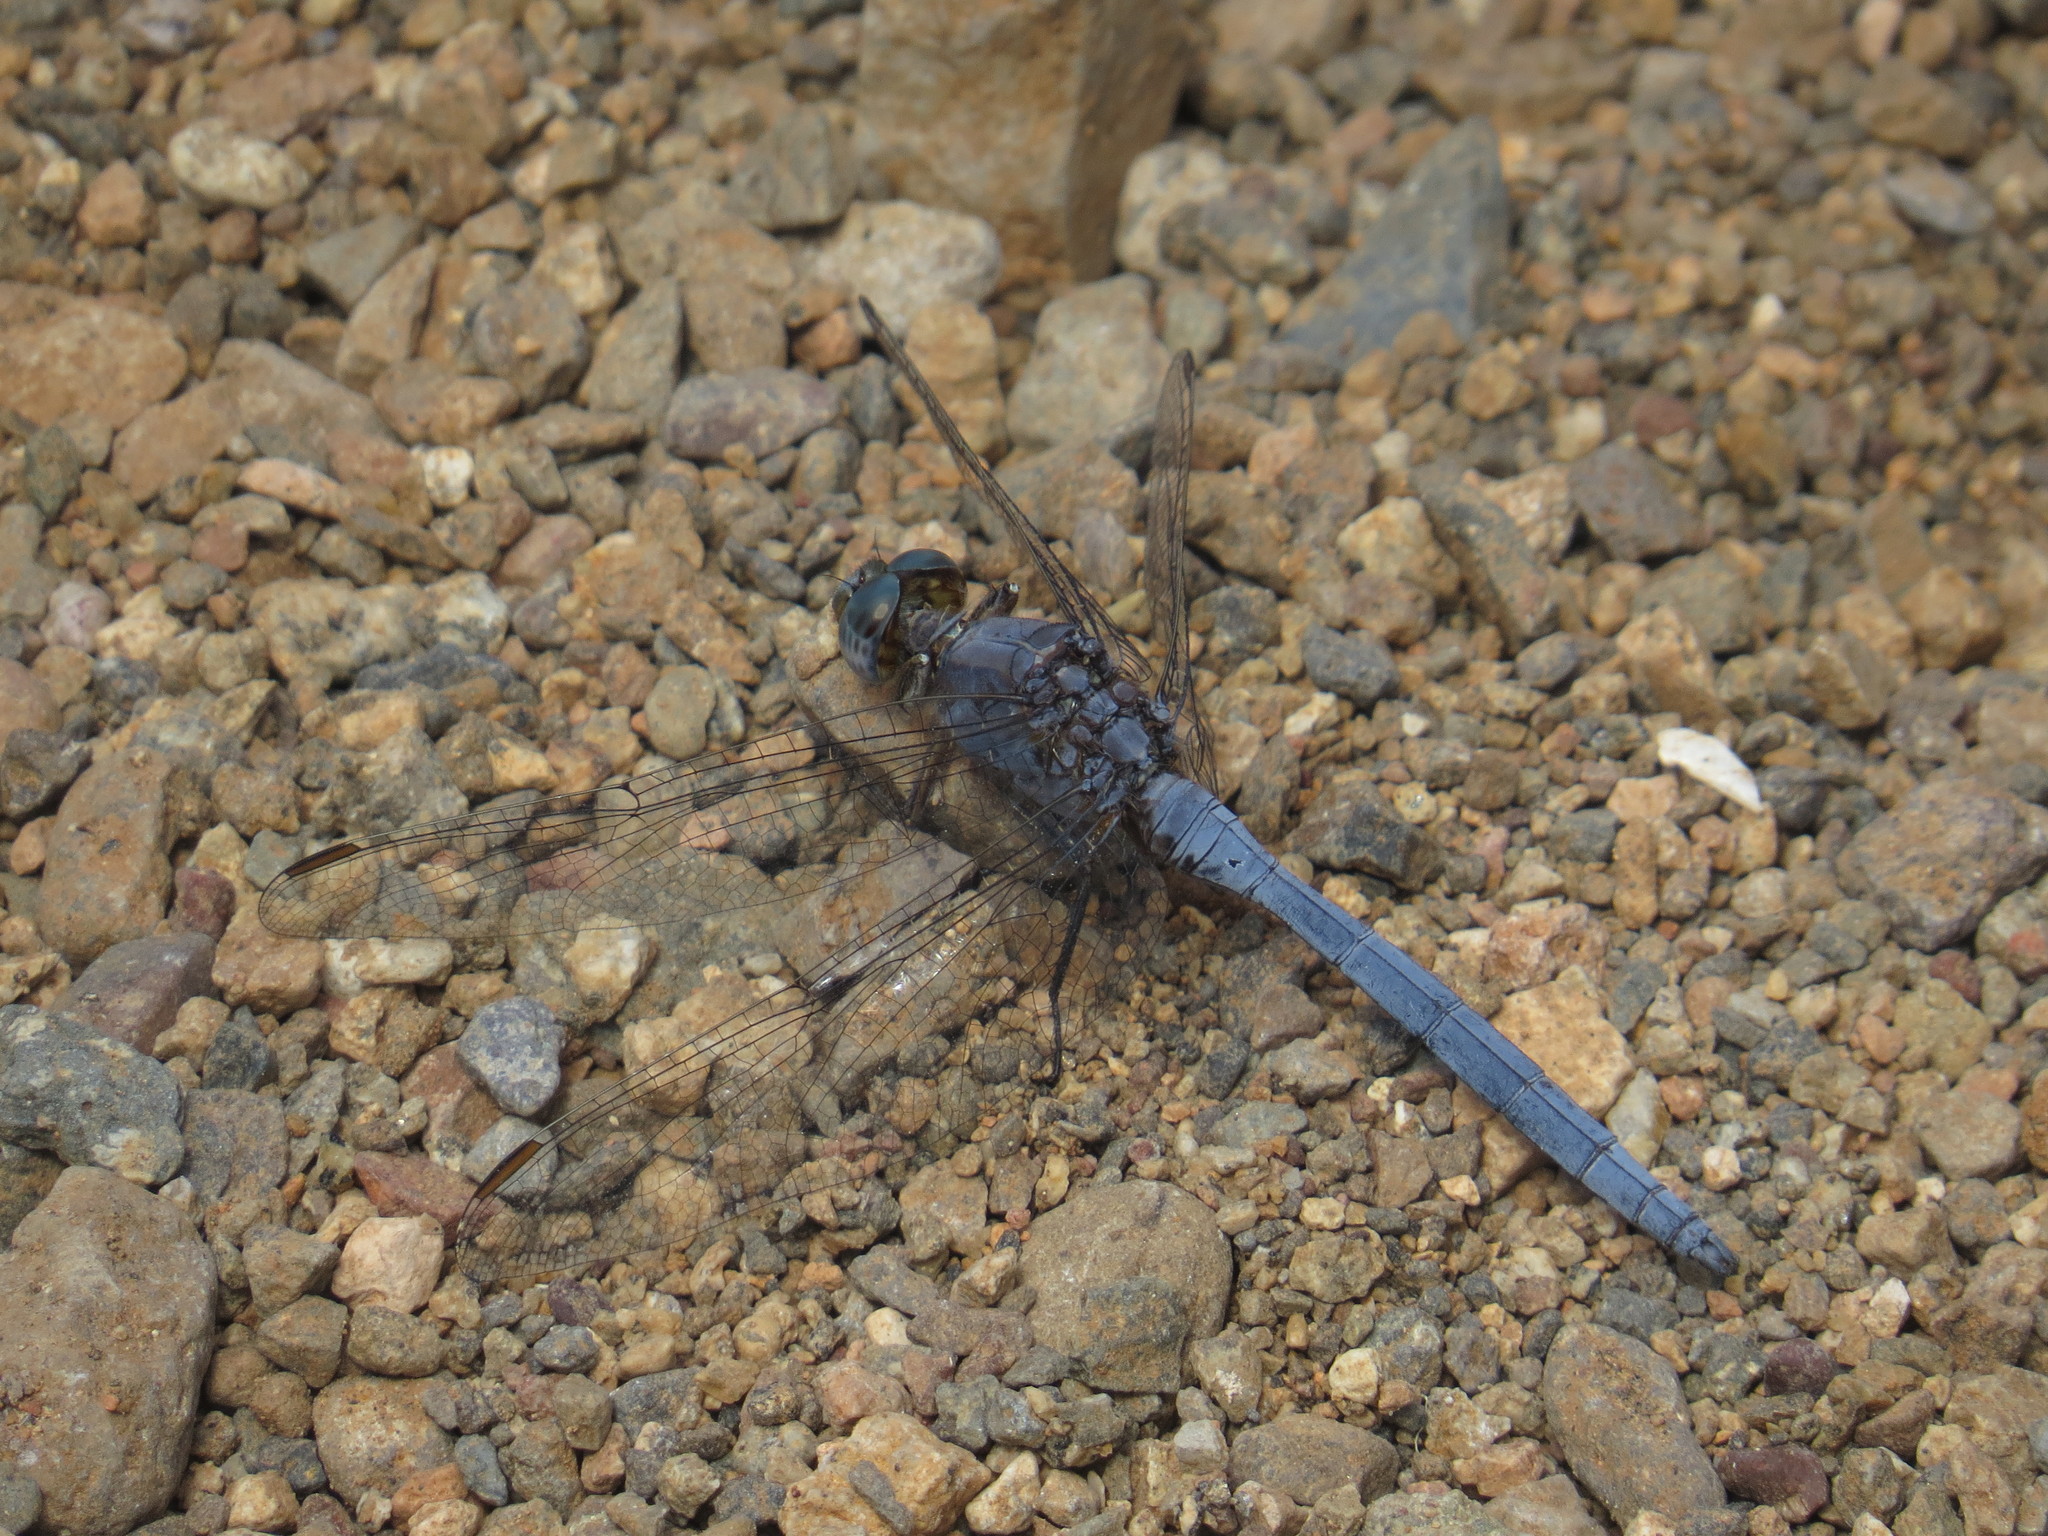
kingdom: Animalia
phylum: Arthropoda
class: Insecta
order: Odonata
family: Libellulidae
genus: Orthetrum
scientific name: Orthetrum chrysostigma
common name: Epaulet skimmer
